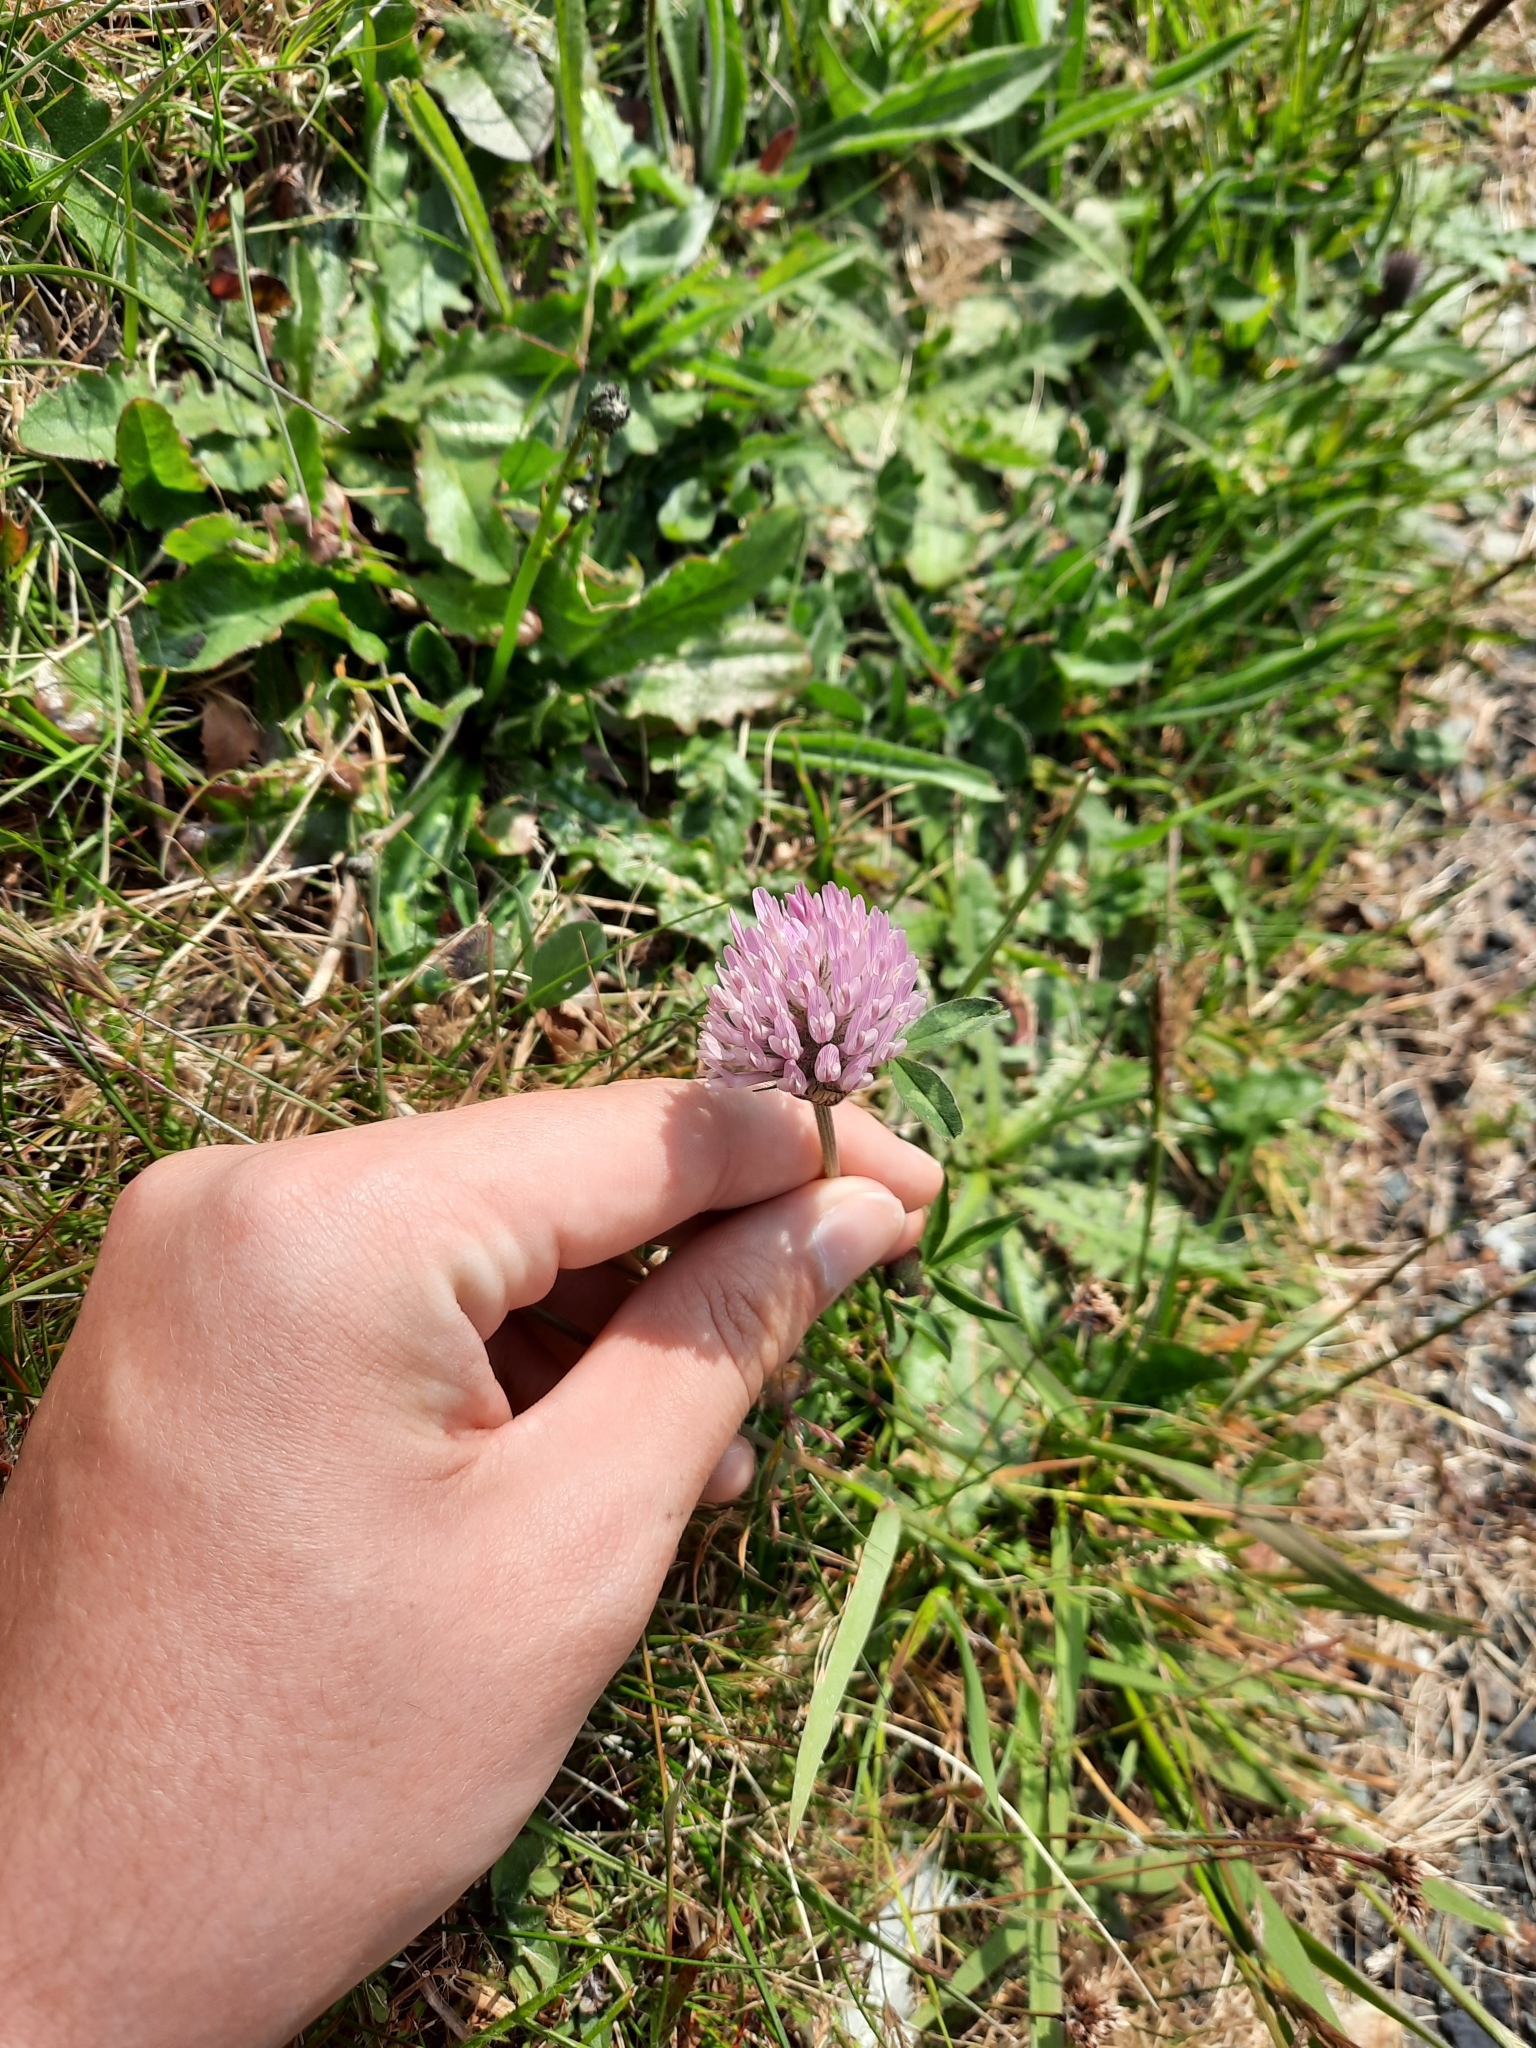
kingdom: Plantae
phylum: Tracheophyta
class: Magnoliopsida
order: Fabales
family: Fabaceae
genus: Trifolium
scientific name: Trifolium pratense
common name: Red clover
